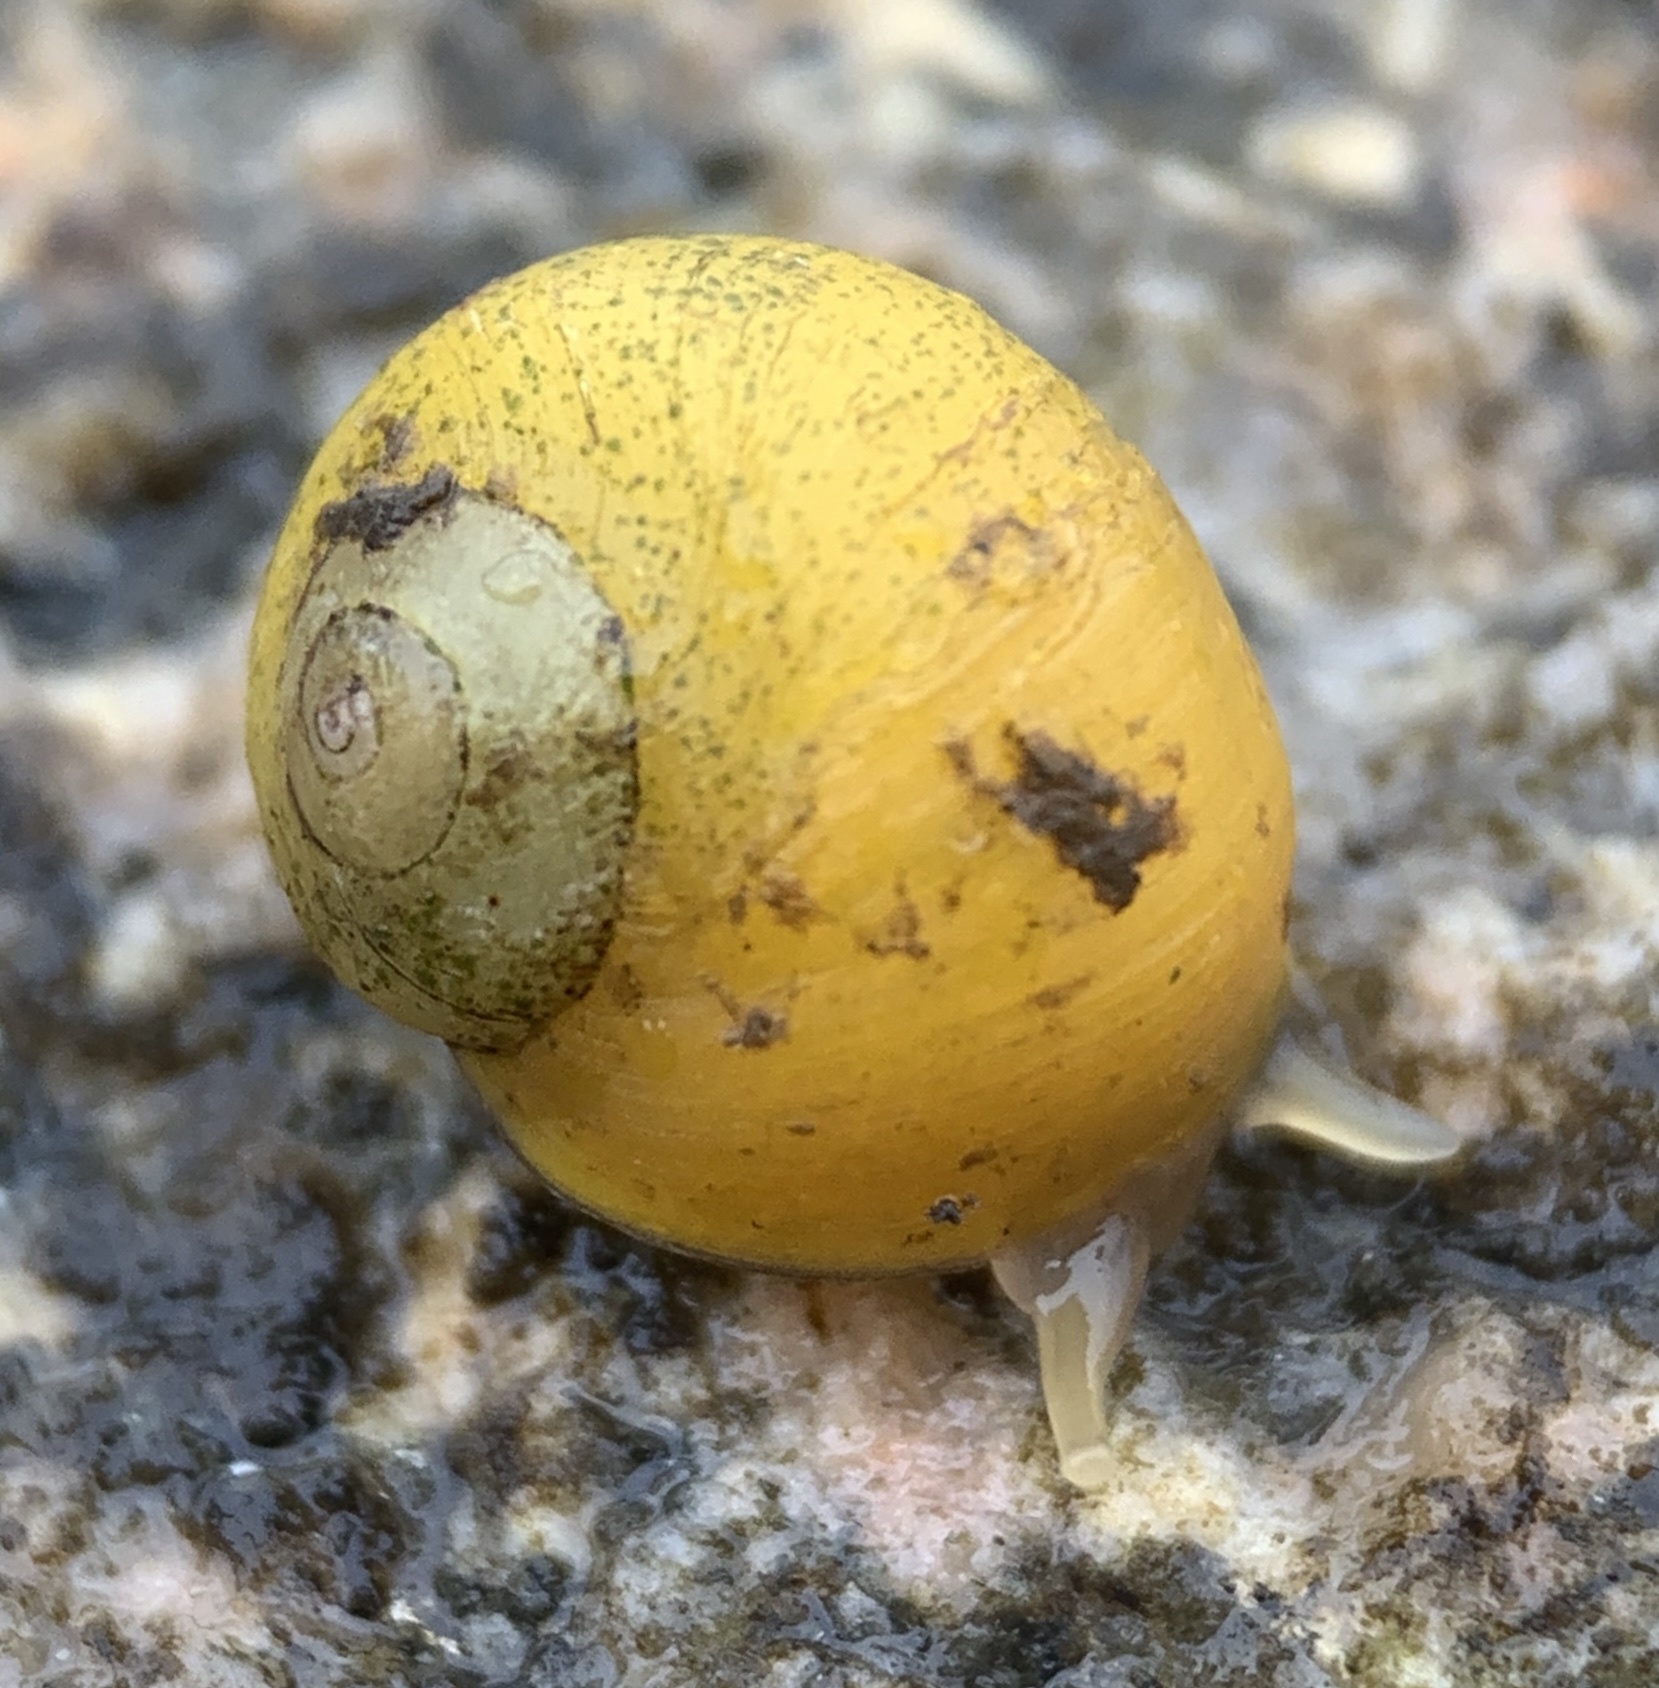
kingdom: Animalia
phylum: Mollusca
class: Gastropoda
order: Littorinimorpha
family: Littorinidae
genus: Littorina
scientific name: Littorina obtusata
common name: Flat periwinkle
